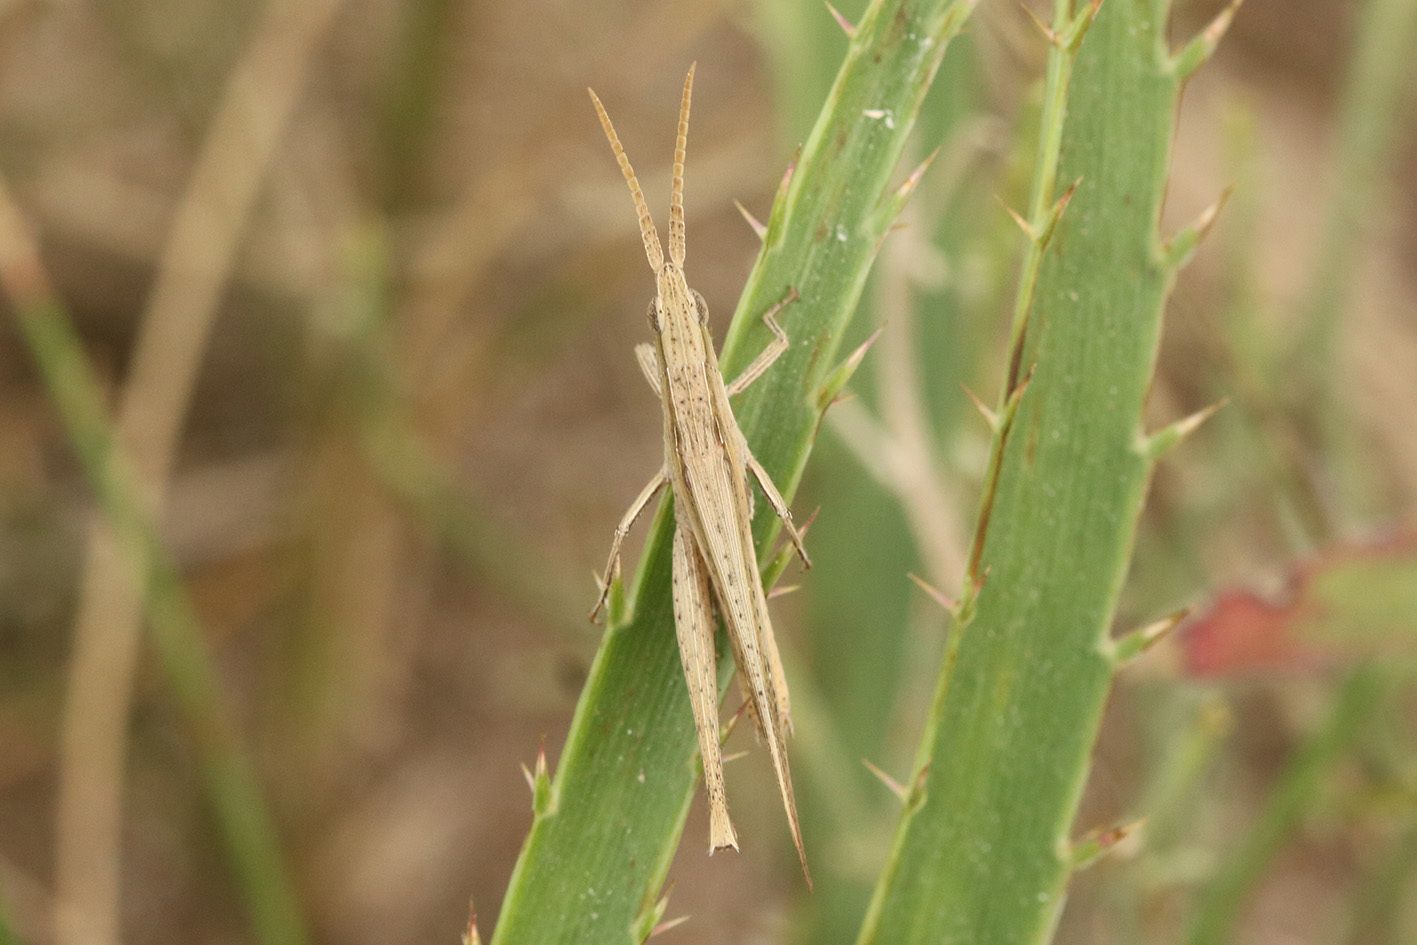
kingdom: Animalia
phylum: Arthropoda
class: Insecta
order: Orthoptera
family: Acrididae
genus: Allotruxalis
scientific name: Allotruxalis gracilis
